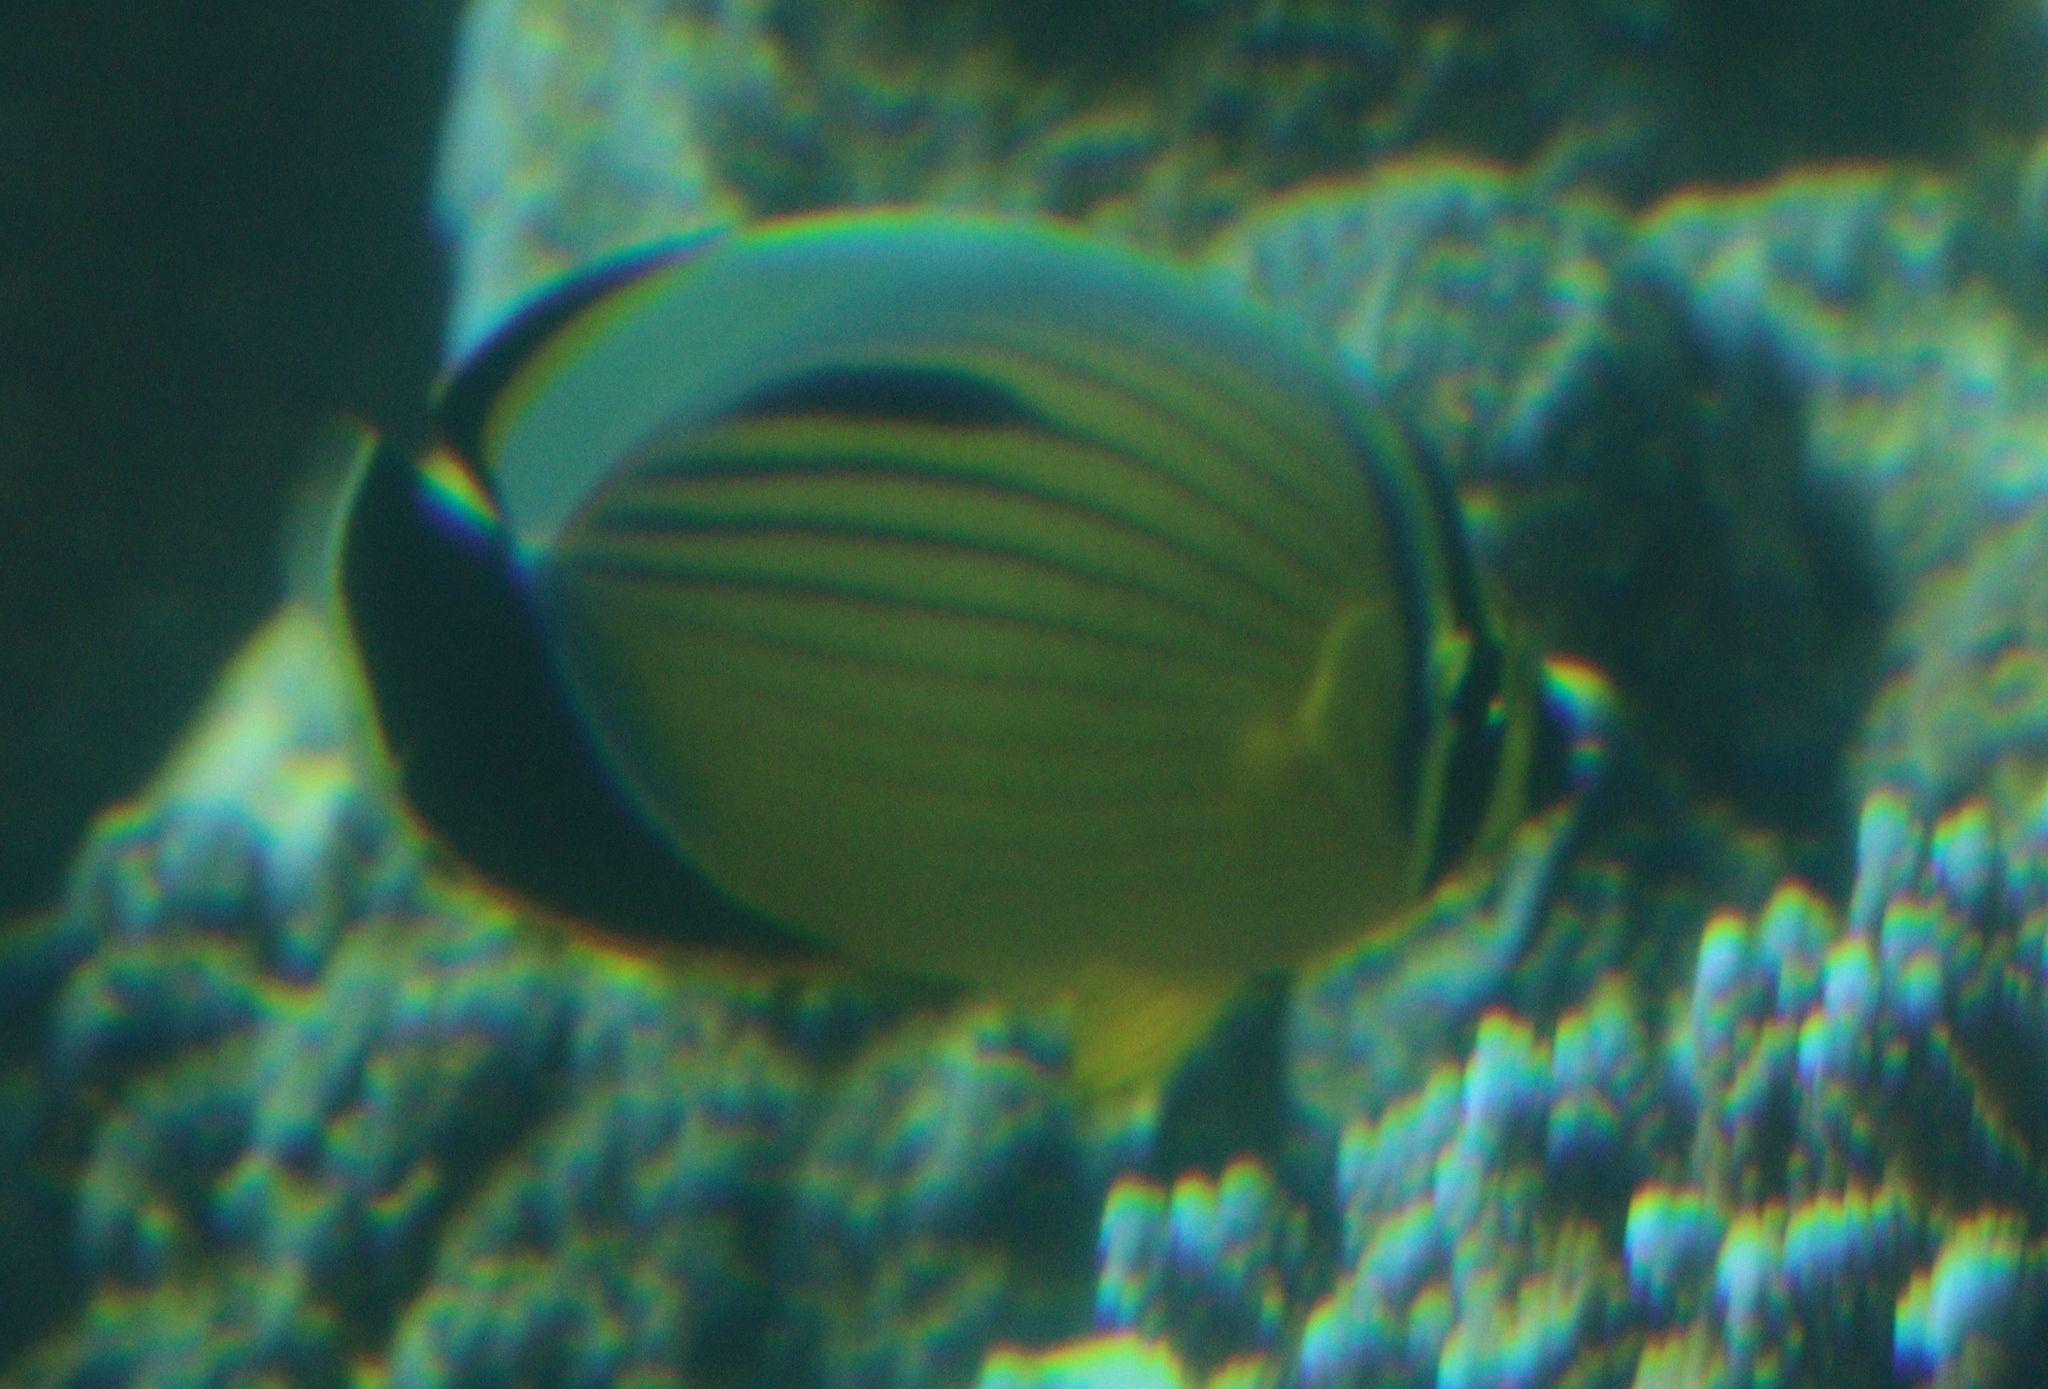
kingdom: Animalia
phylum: Chordata
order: Perciformes
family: Chaetodontidae
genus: Chaetodon
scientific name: Chaetodon austriacus
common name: Exquisite butterflyfish
